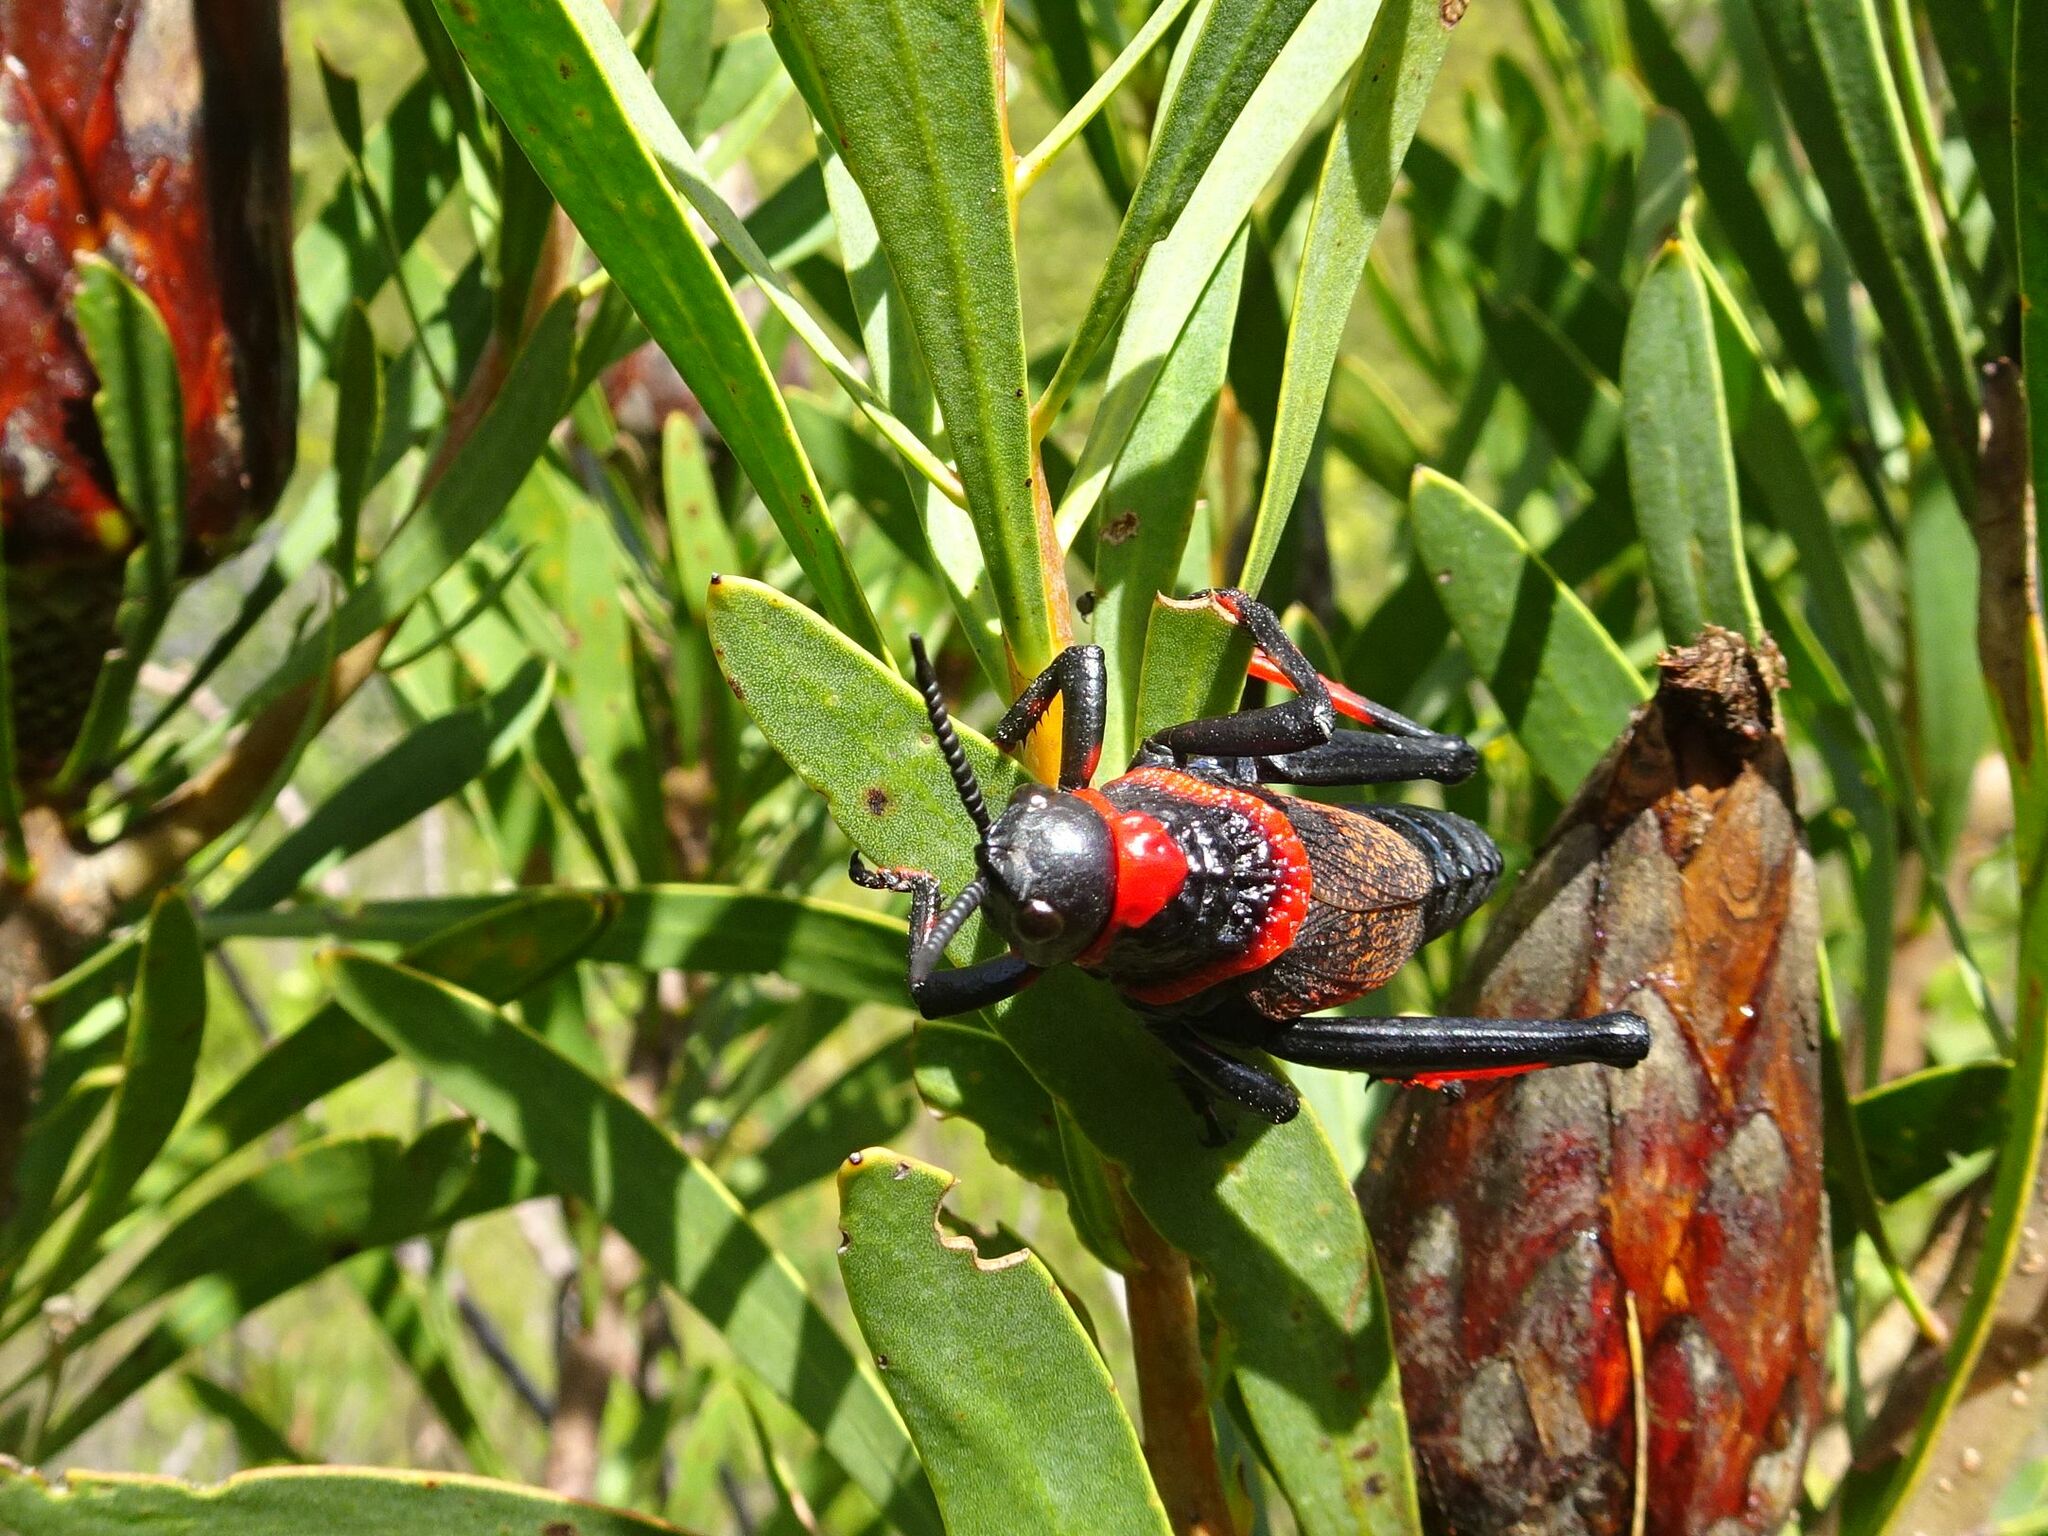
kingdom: Animalia
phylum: Arthropoda
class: Insecta
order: Orthoptera
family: Pyrgomorphidae
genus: Dictyophorus
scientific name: Dictyophorus spumans
